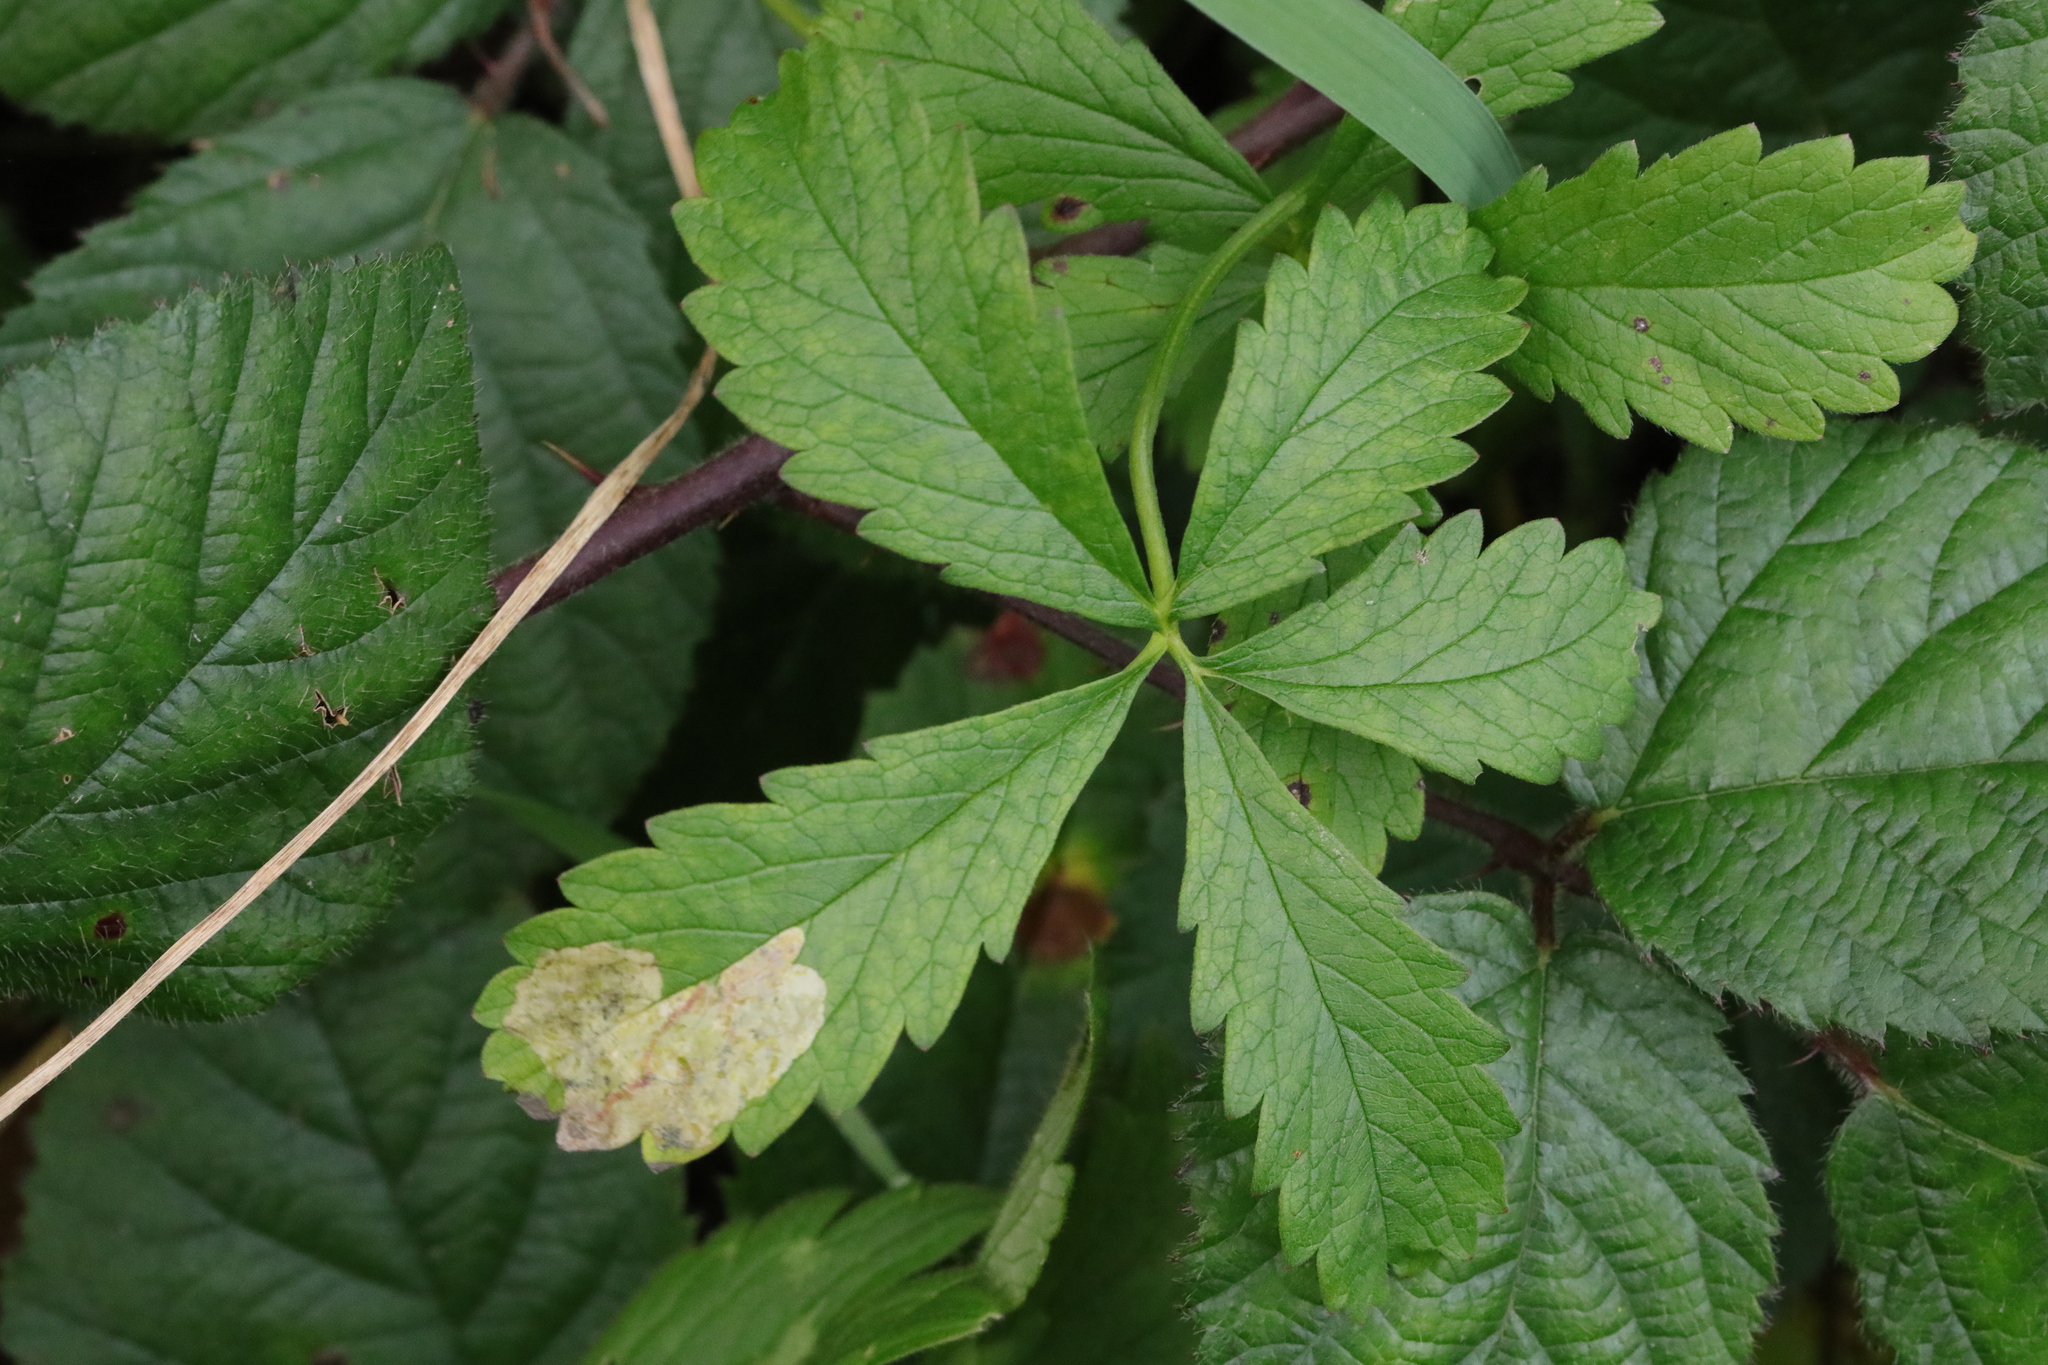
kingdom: Plantae
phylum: Tracheophyta
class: Magnoliopsida
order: Rosales
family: Rosaceae
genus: Potentilla
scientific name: Potentilla reptans
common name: Creeping cinquefoil
